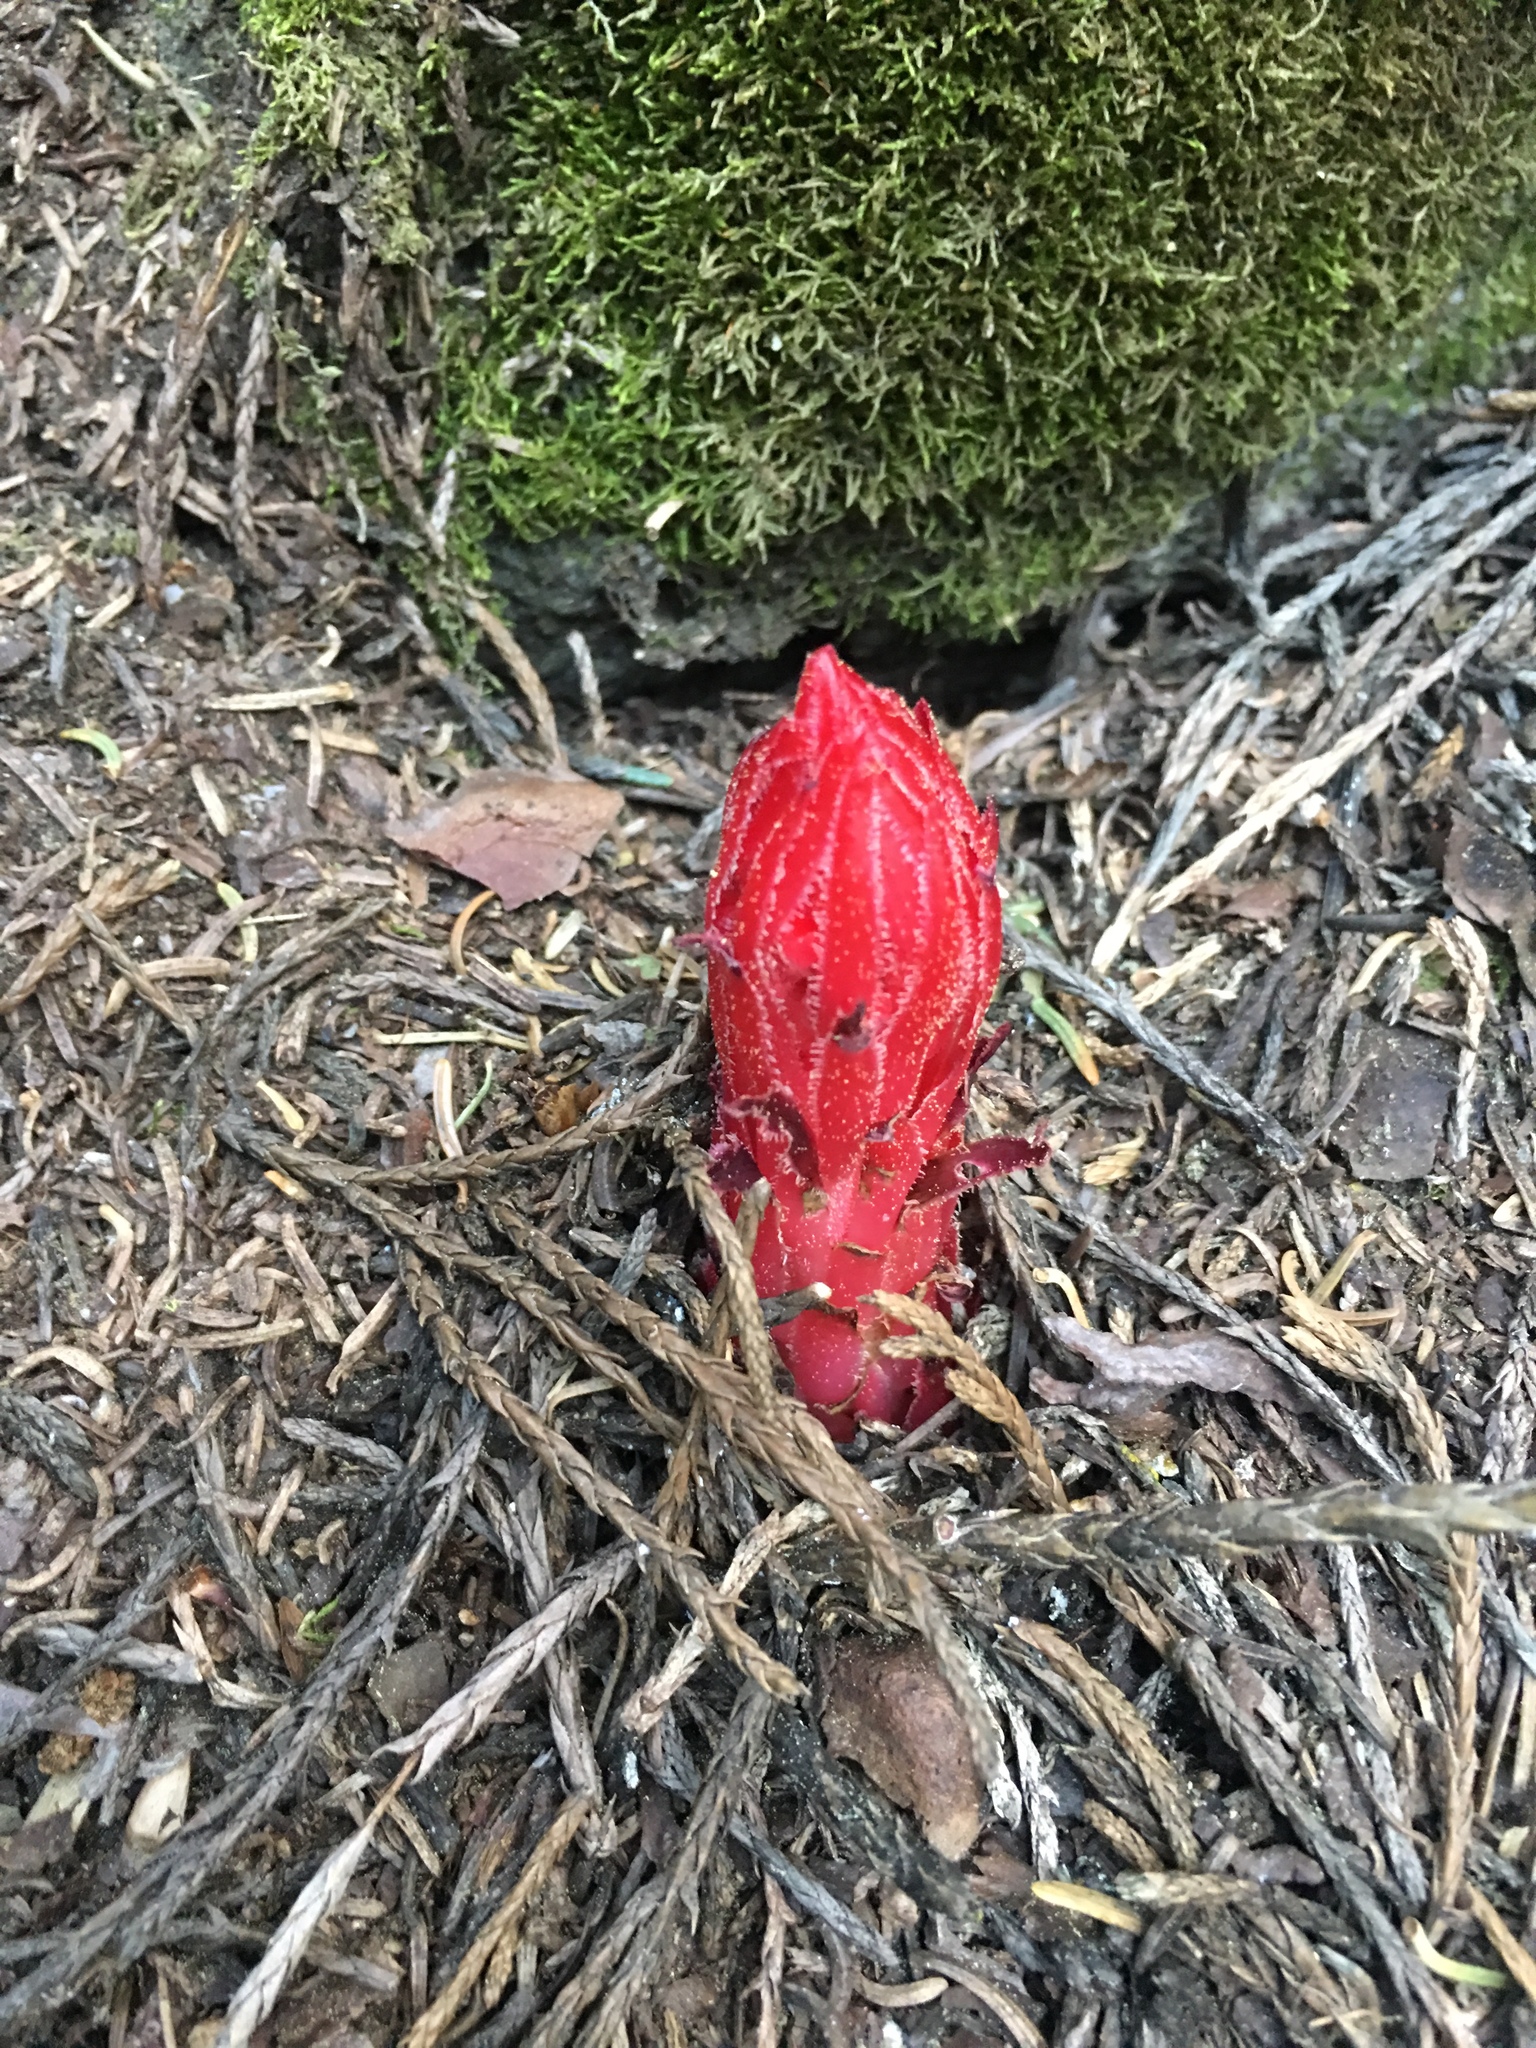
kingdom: Plantae
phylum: Tracheophyta
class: Magnoliopsida
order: Ericales
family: Ericaceae
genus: Sarcodes
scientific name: Sarcodes sanguinea
